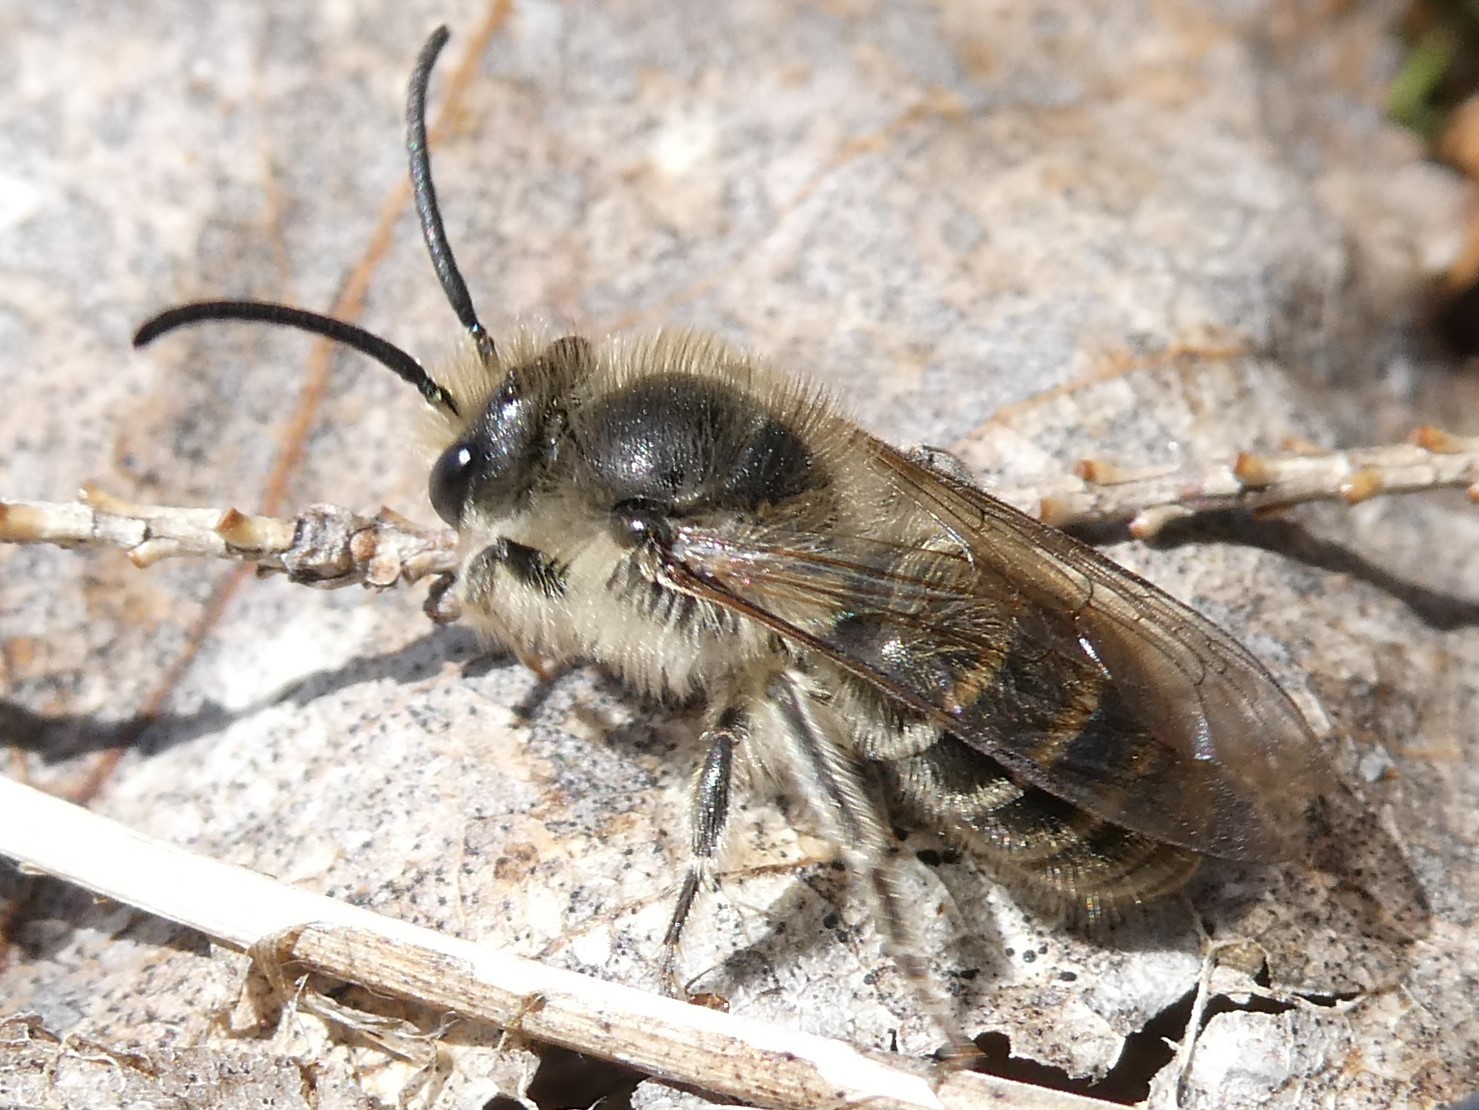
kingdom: Animalia
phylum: Arthropoda
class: Insecta
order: Hymenoptera
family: Colletidae
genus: Colletes
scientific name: Colletes inaequalis
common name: Unequal cellophane bee
